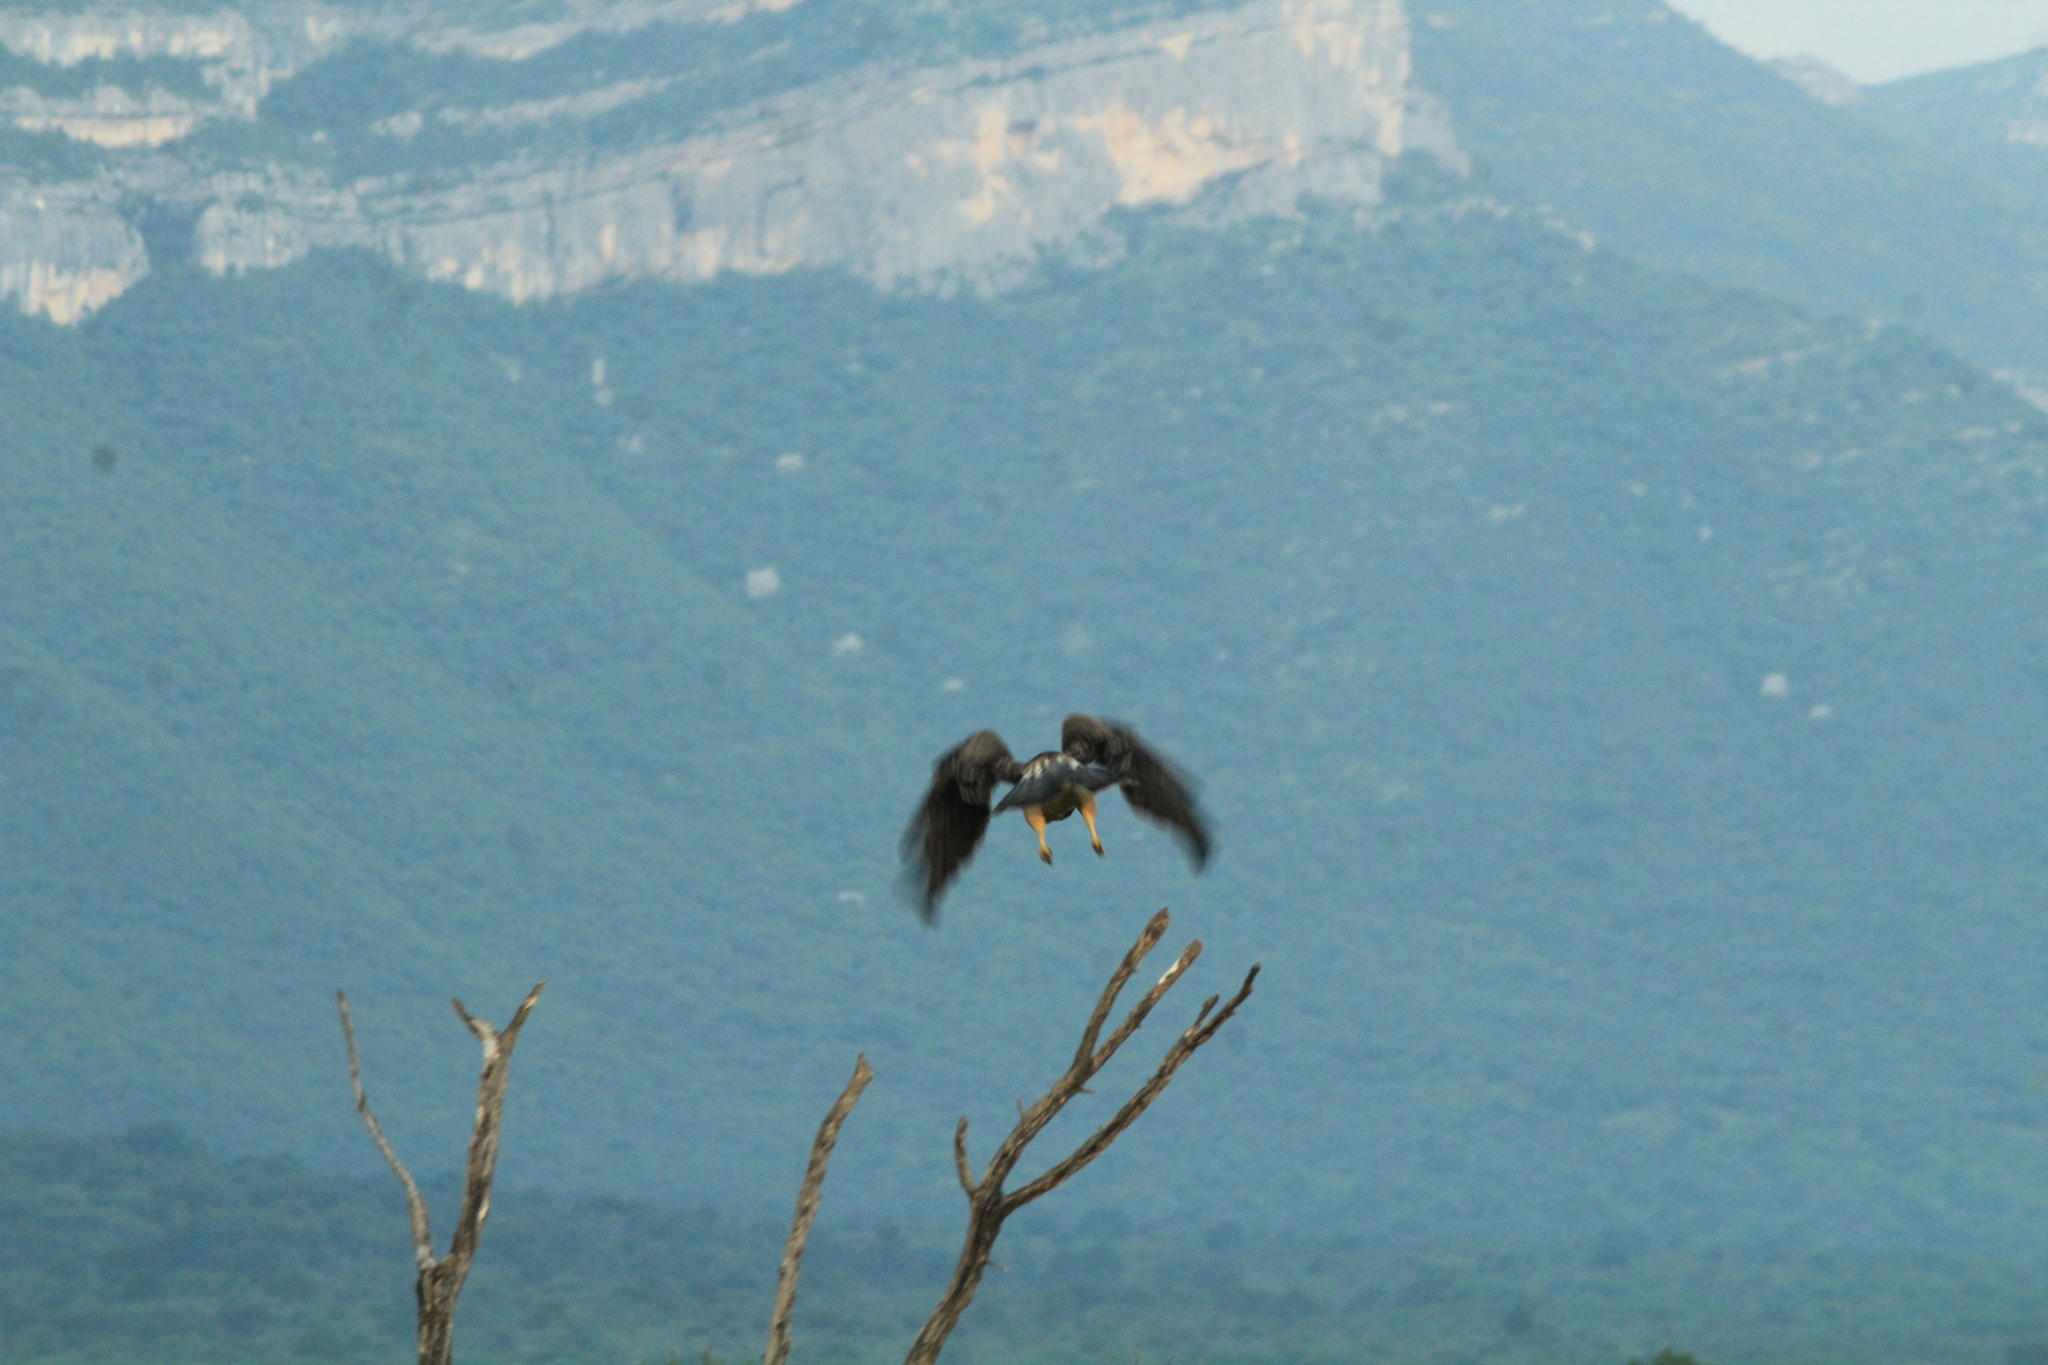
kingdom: Animalia
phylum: Chordata
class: Aves
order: Accipitriformes
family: Accipitridae
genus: Buteo
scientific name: Buteo swainsoni
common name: Swainson's hawk
